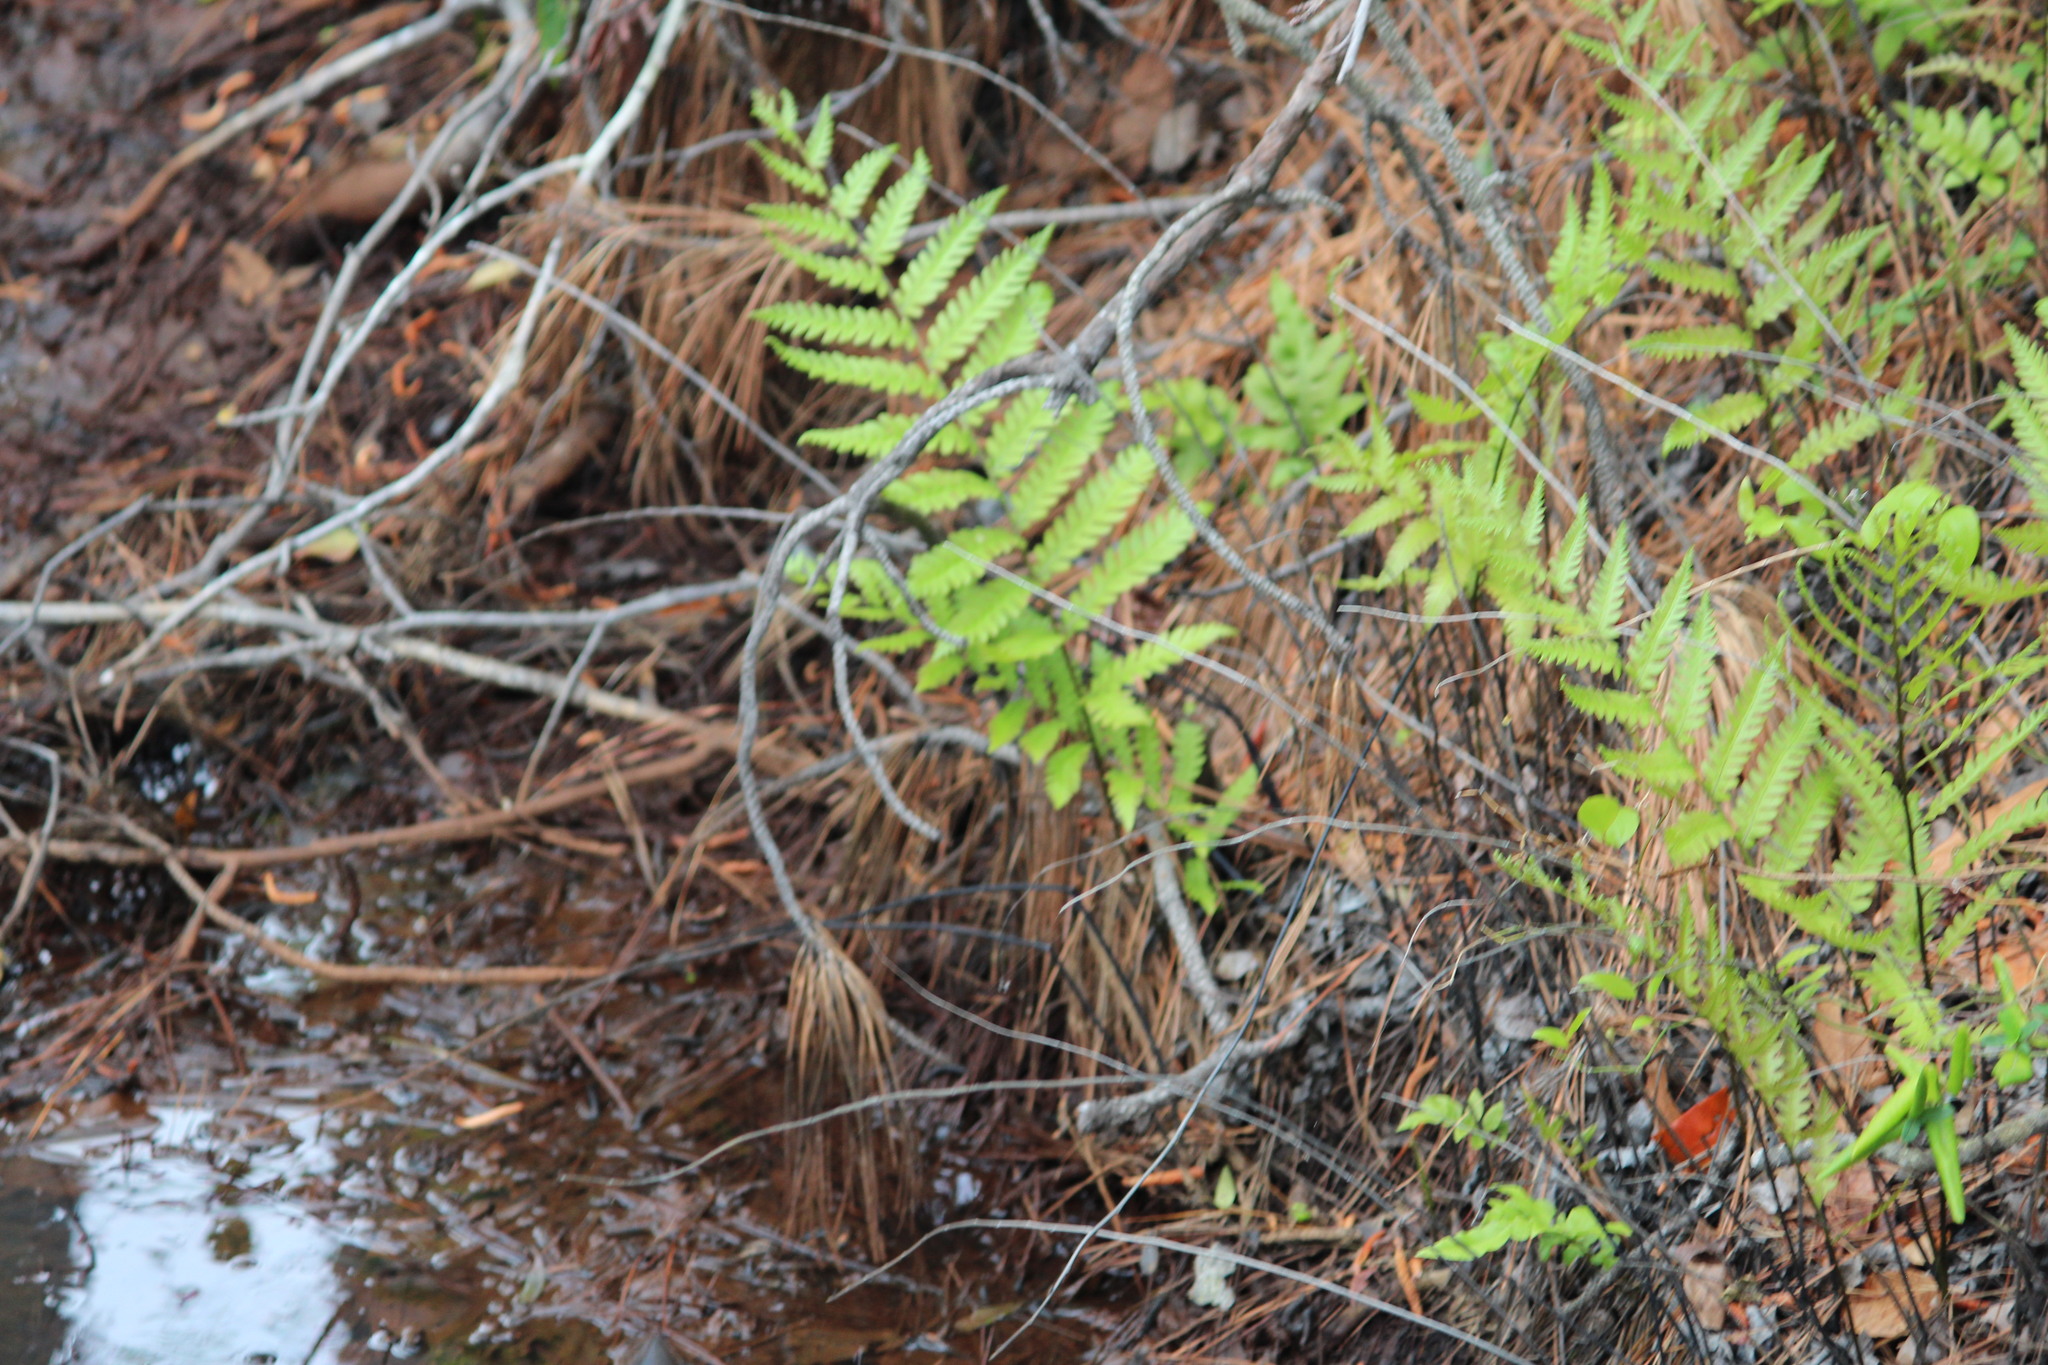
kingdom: Plantae
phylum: Tracheophyta
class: Polypodiopsida
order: Polypodiales
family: Blechnaceae
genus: Anchistea
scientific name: Anchistea virginica
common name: Virginia chain fern
